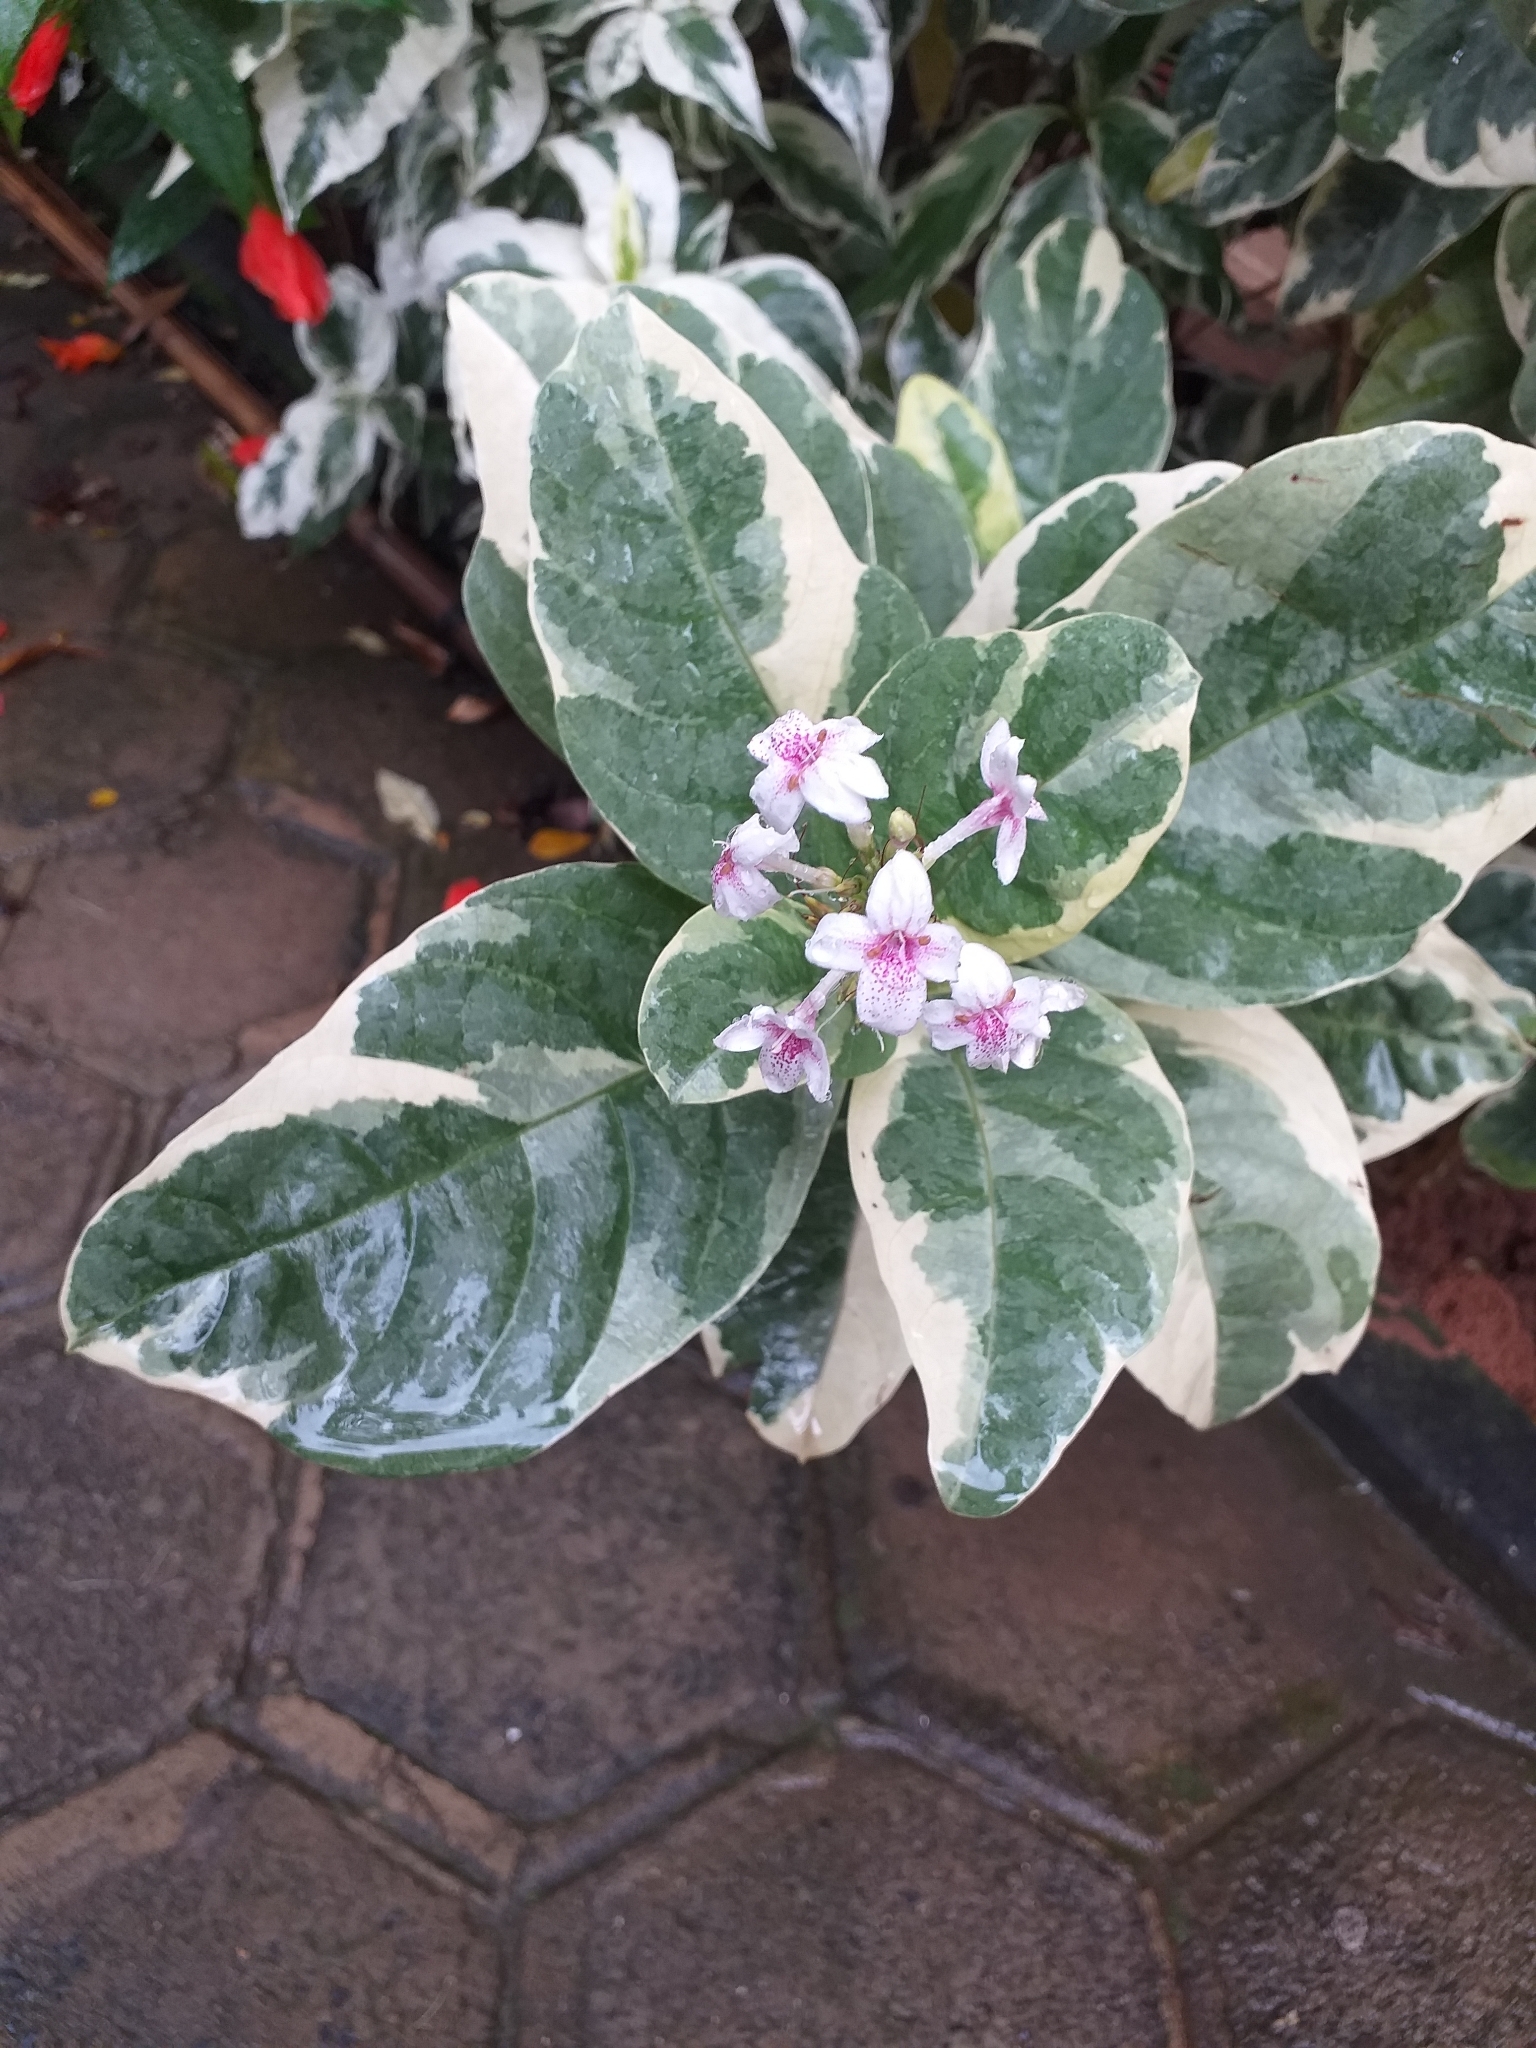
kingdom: Plantae
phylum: Tracheophyta
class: Magnoliopsida
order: Lamiales
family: Acanthaceae
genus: Pseuderanthemum
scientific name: Pseuderanthemum maculatum
